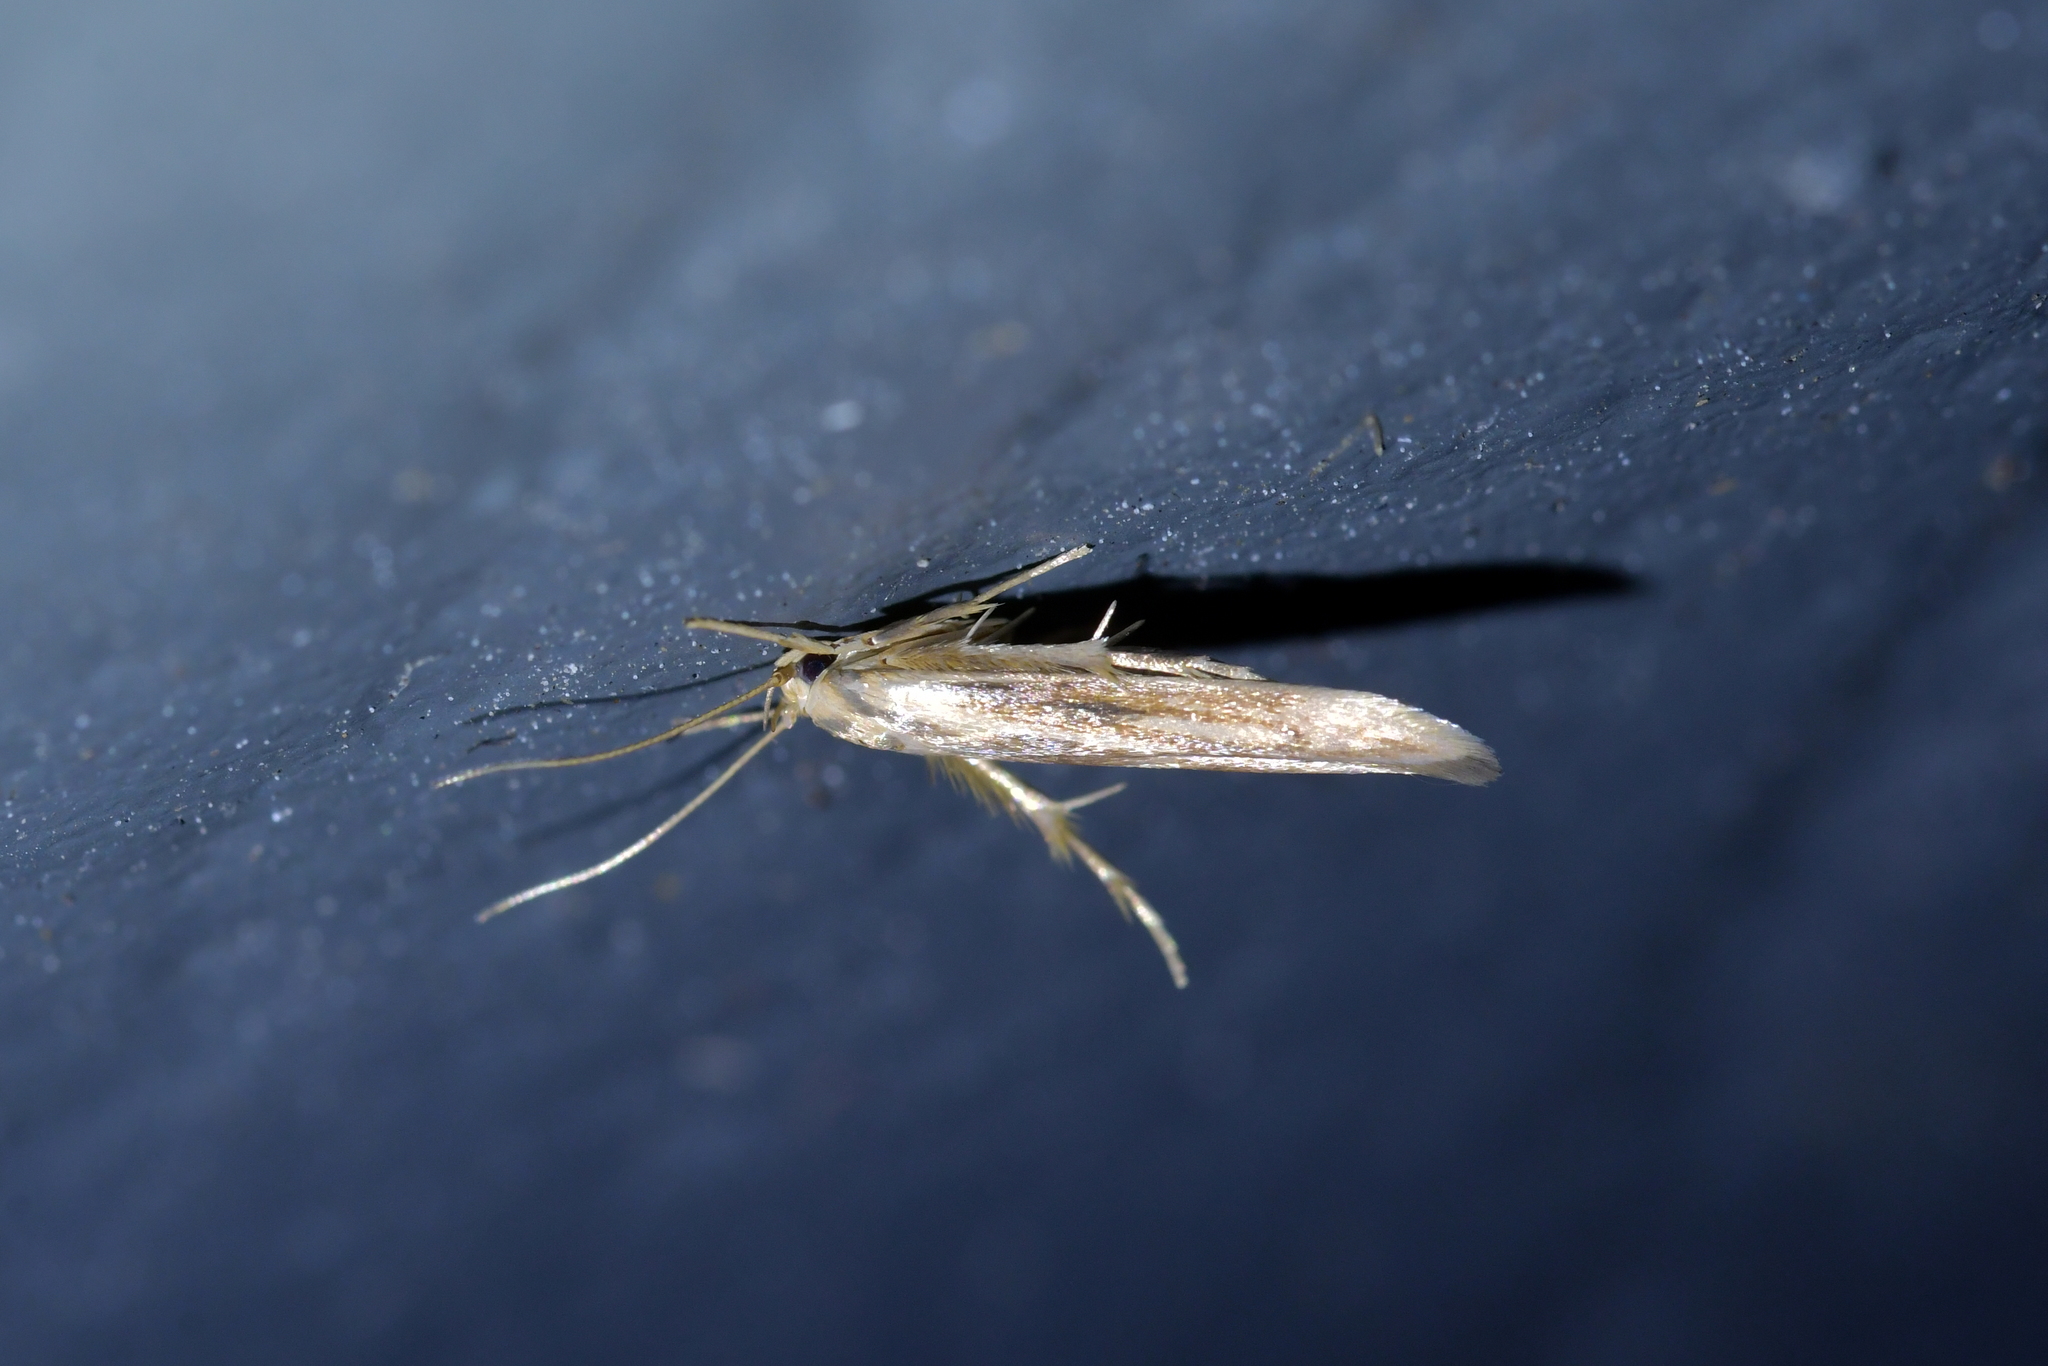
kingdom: Animalia
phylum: Arthropoda
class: Insecta
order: Lepidoptera
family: Stathmopodidae
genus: Stathmopoda
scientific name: Stathmopoda aposema
